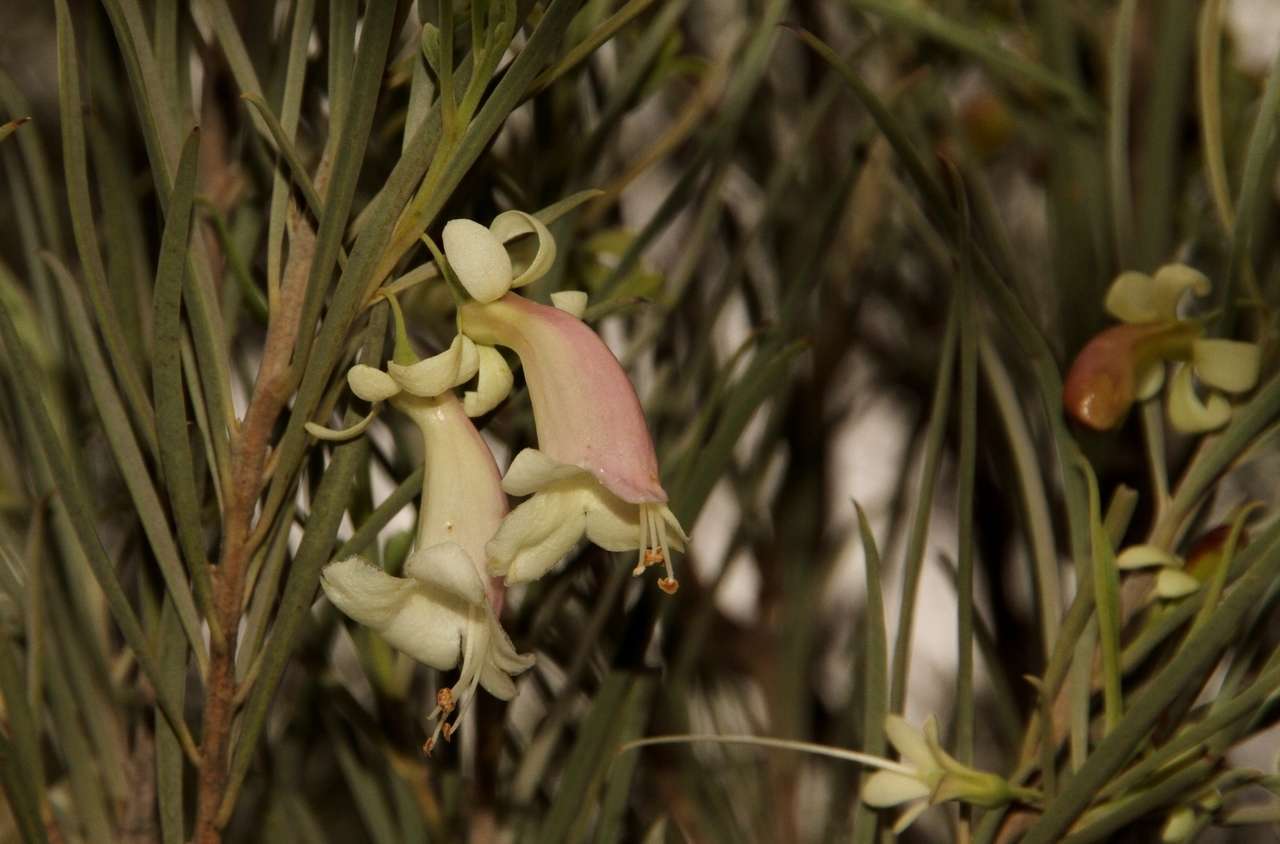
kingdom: Plantae
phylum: Tracheophyta
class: Magnoliopsida
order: Lamiales
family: Scrophulariaceae
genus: Eremophila
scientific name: Eremophila oppositifolia
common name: Mountain-sandalwood
